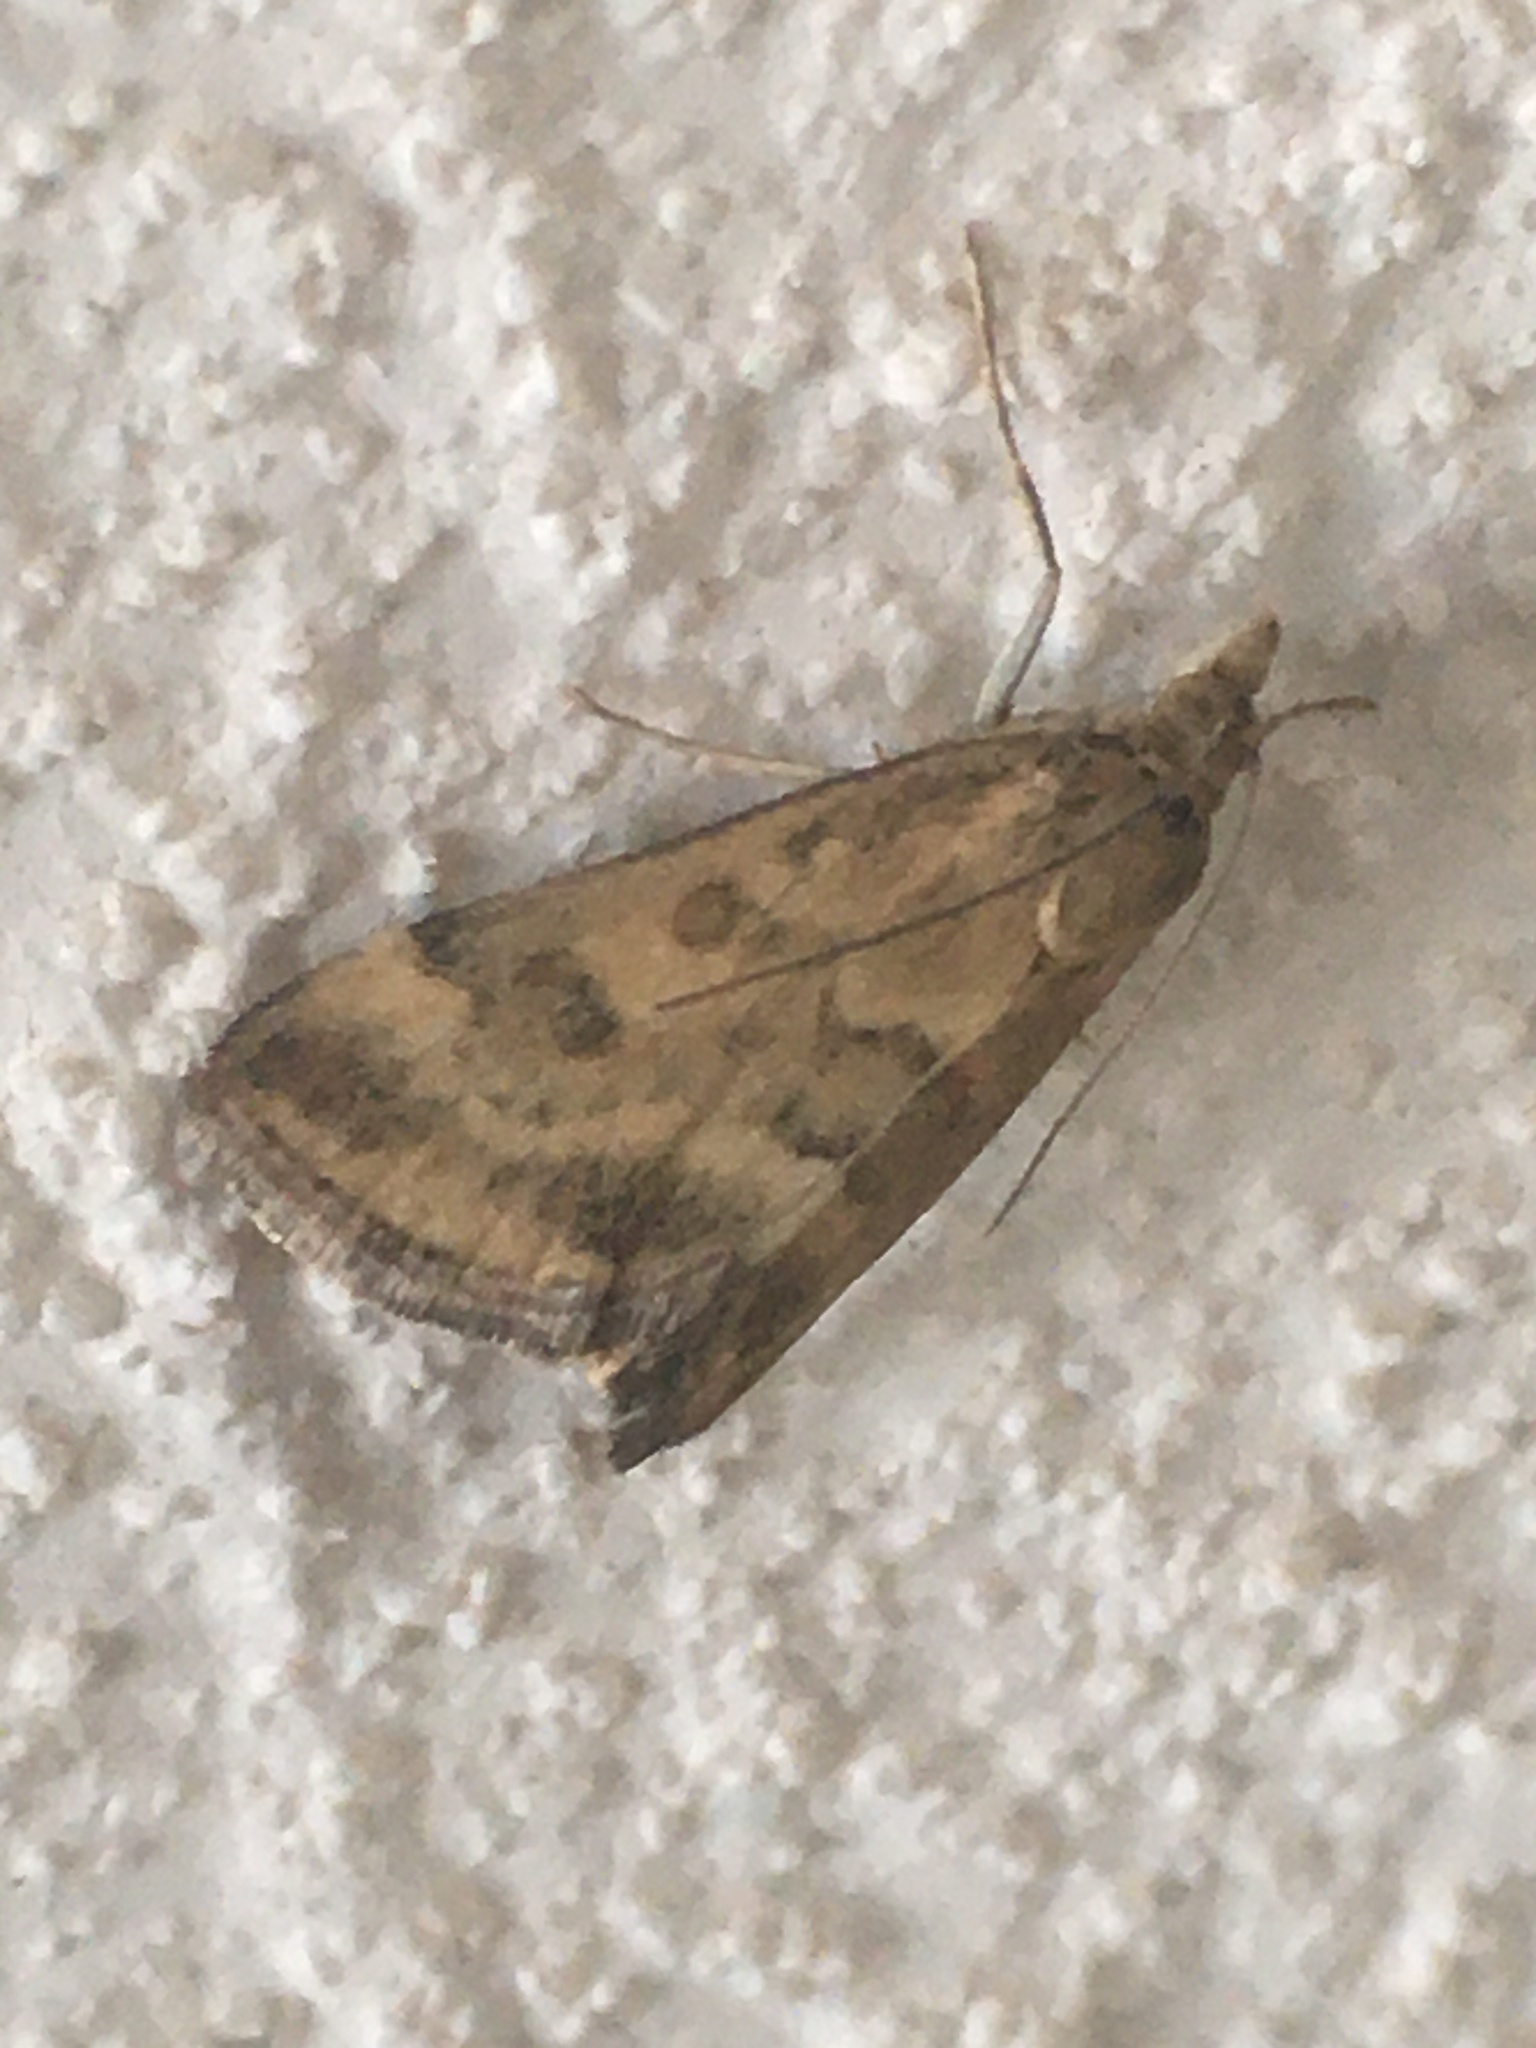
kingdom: Animalia
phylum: Arthropoda
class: Insecta
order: Lepidoptera
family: Crambidae
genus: Pyrausta
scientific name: Pyrausta despicata
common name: Straw-barred pearl
